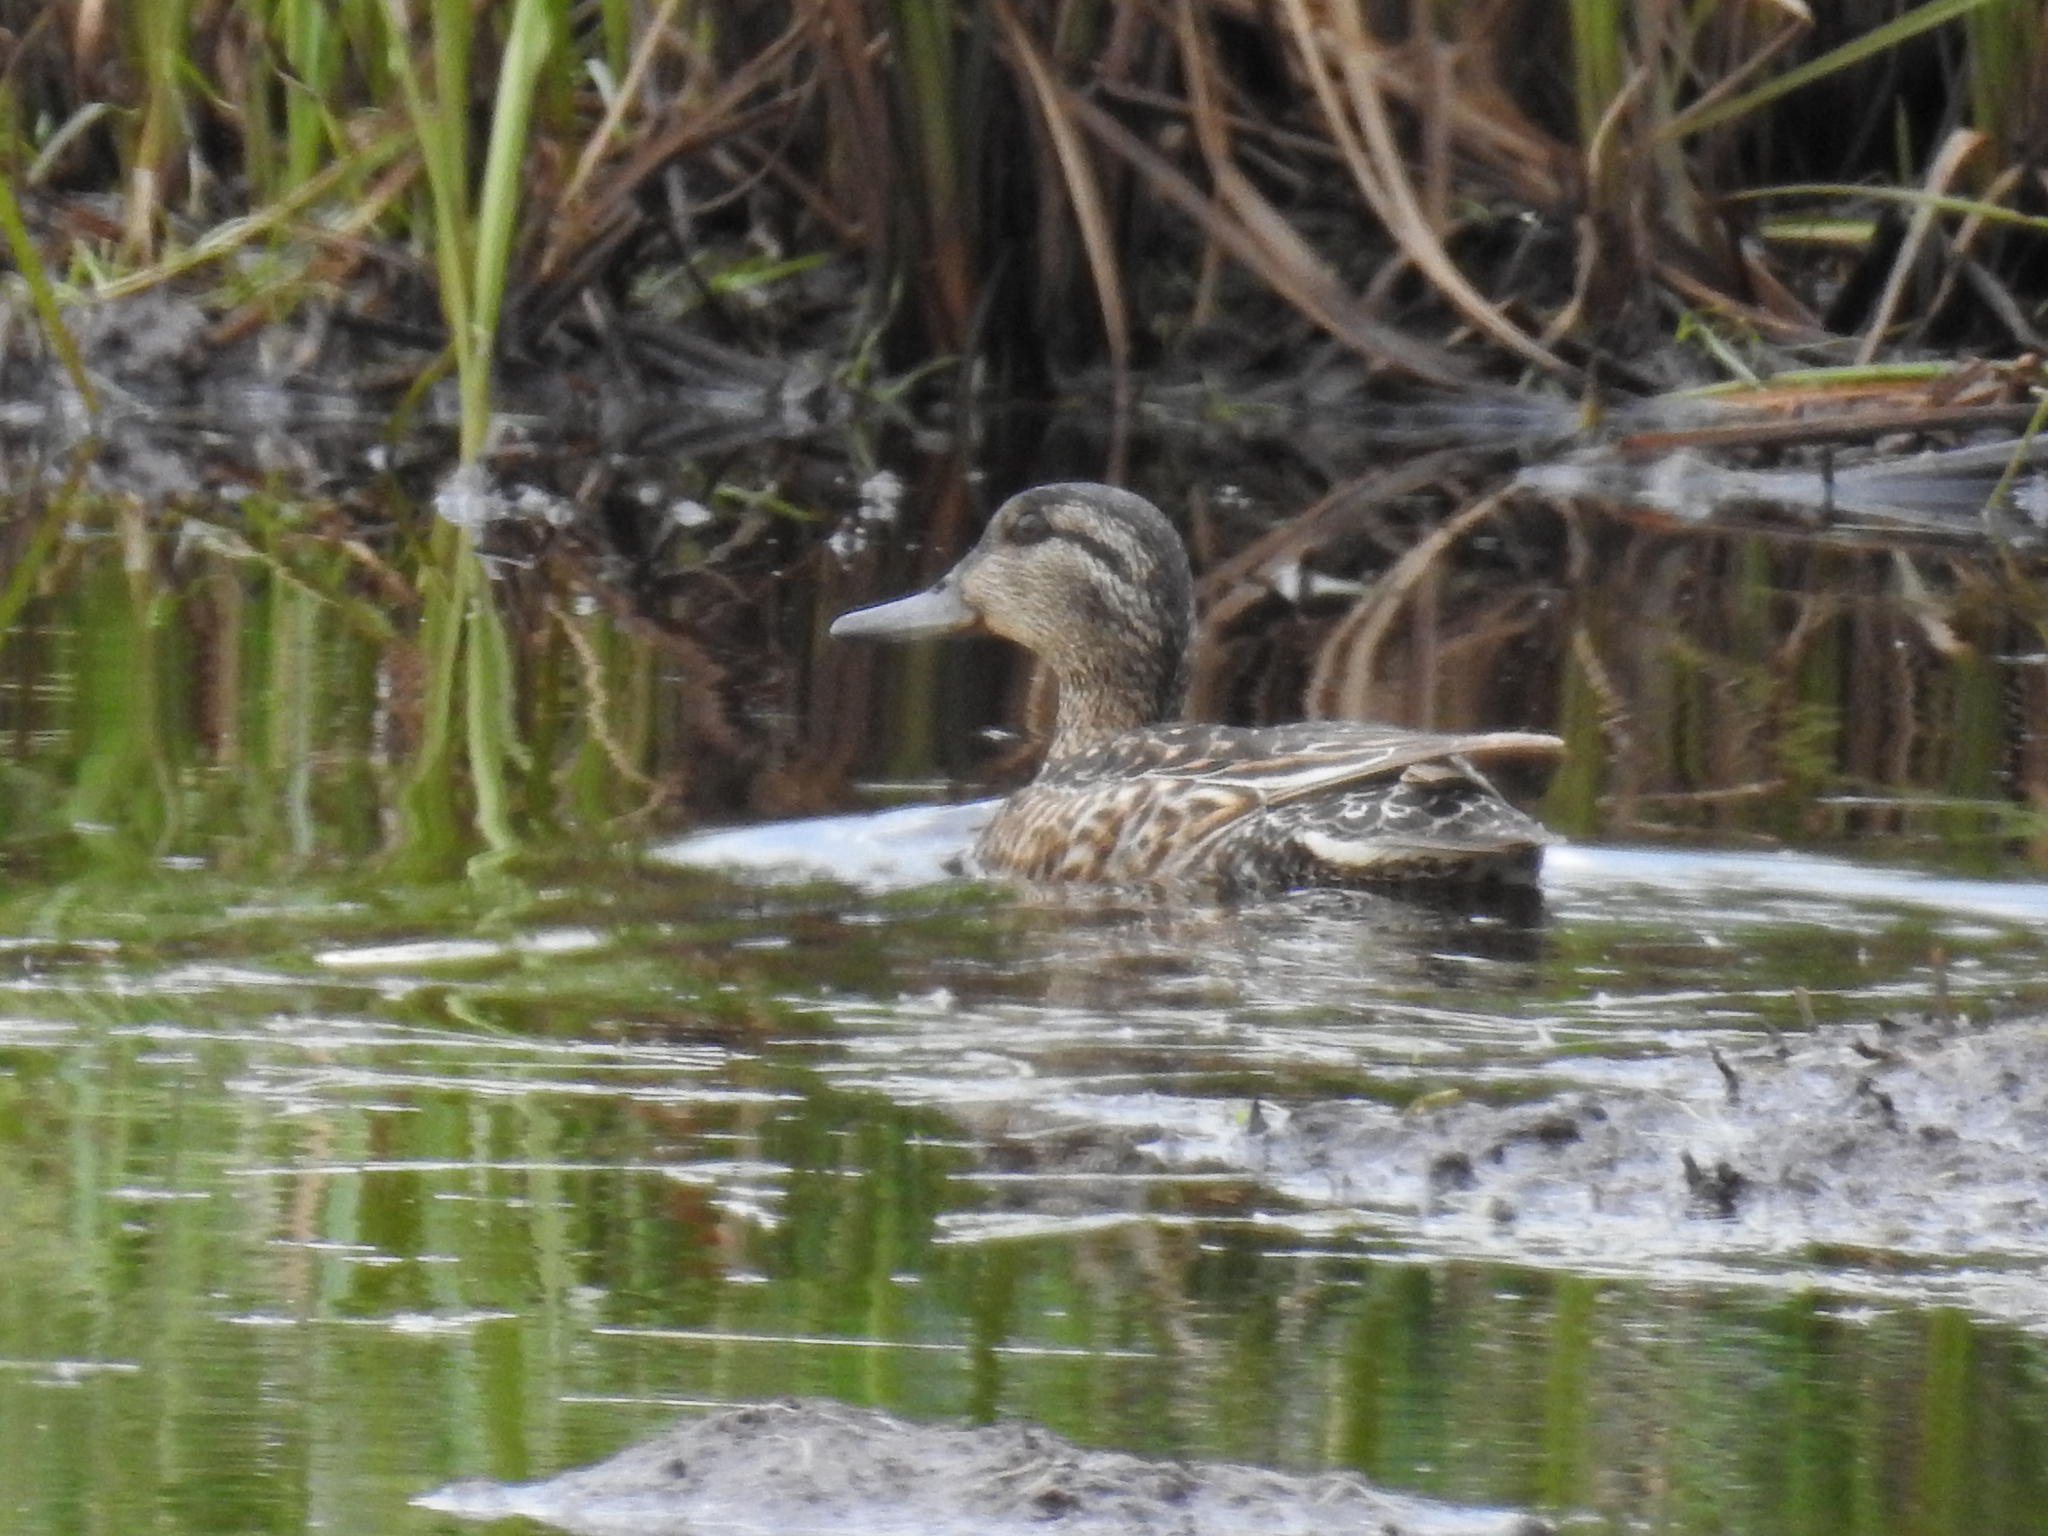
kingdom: Animalia
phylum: Chordata
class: Aves
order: Anseriformes
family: Anatidae
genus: Anas
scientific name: Anas crecca
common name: Eurasian teal
